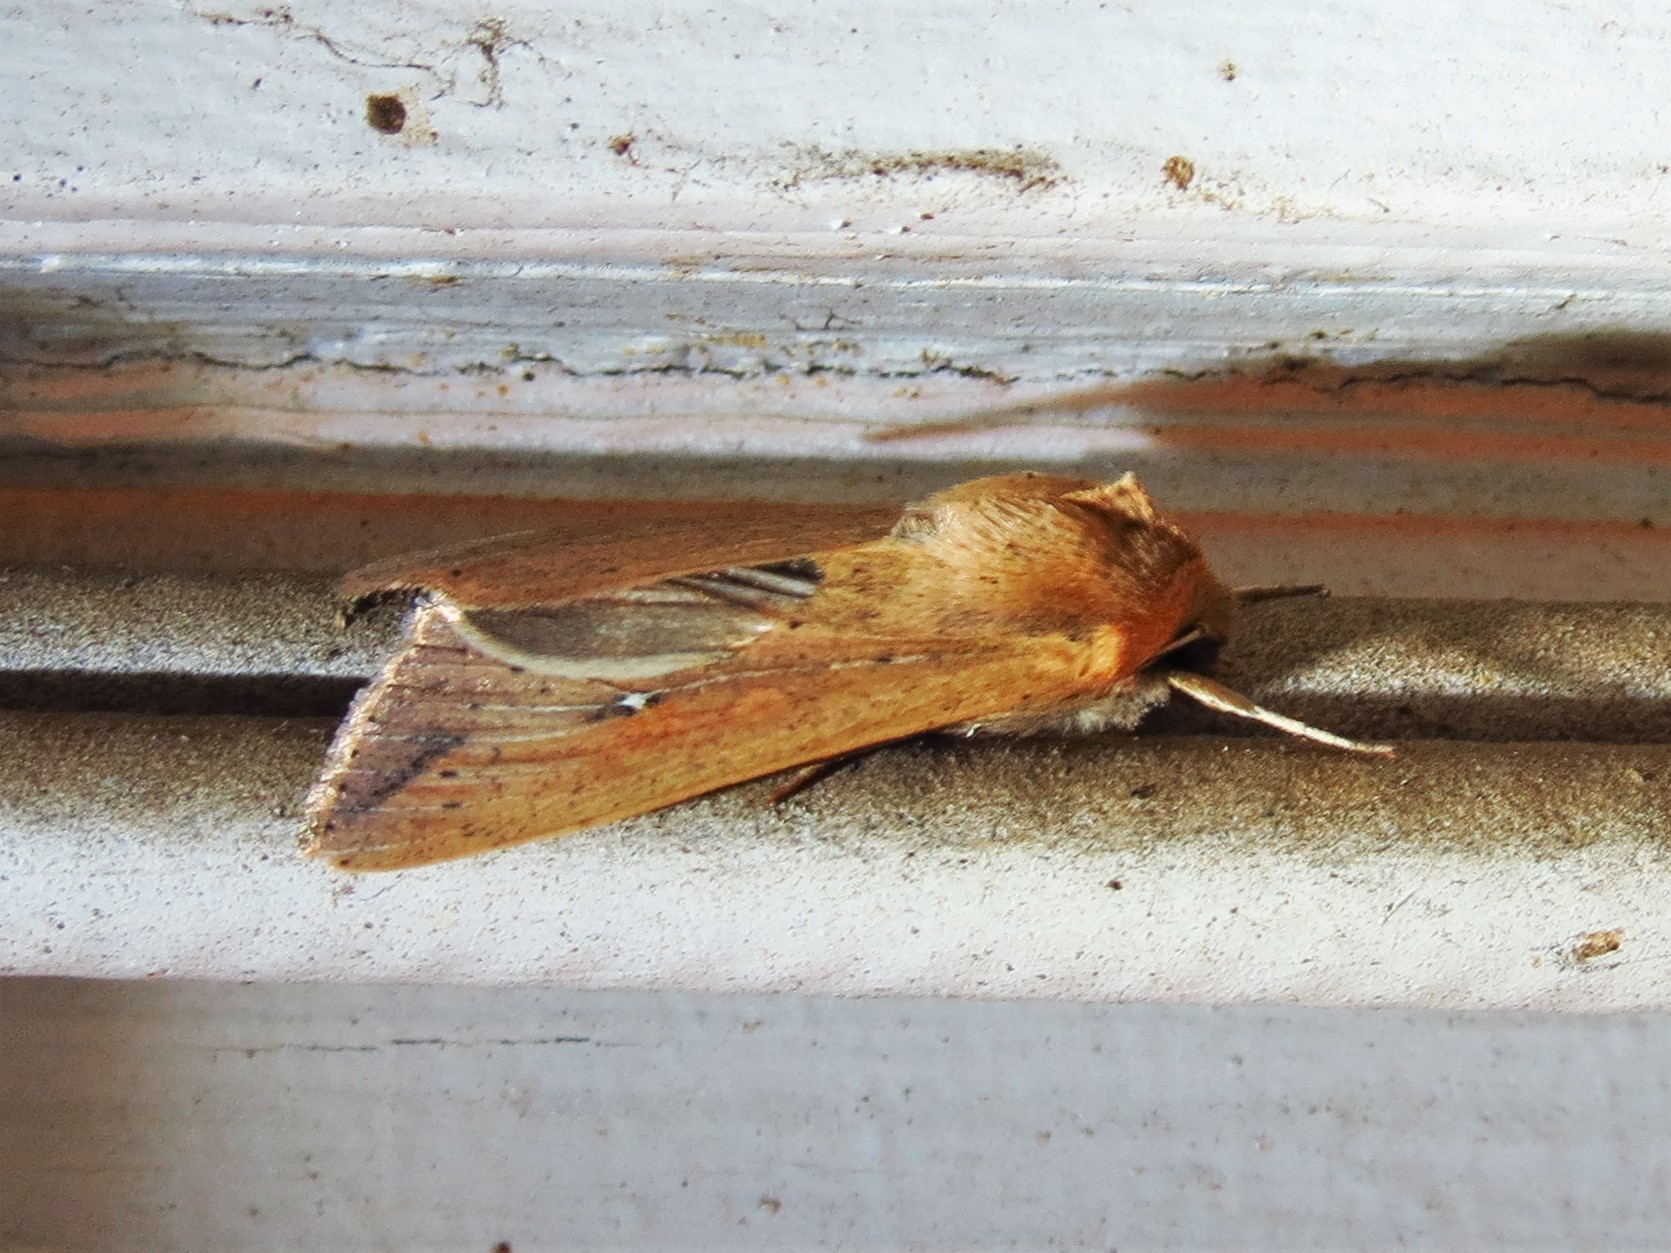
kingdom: Animalia
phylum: Arthropoda
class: Insecta
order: Lepidoptera
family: Noctuidae
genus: Mythimna
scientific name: Mythimna unipuncta
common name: White-speck
